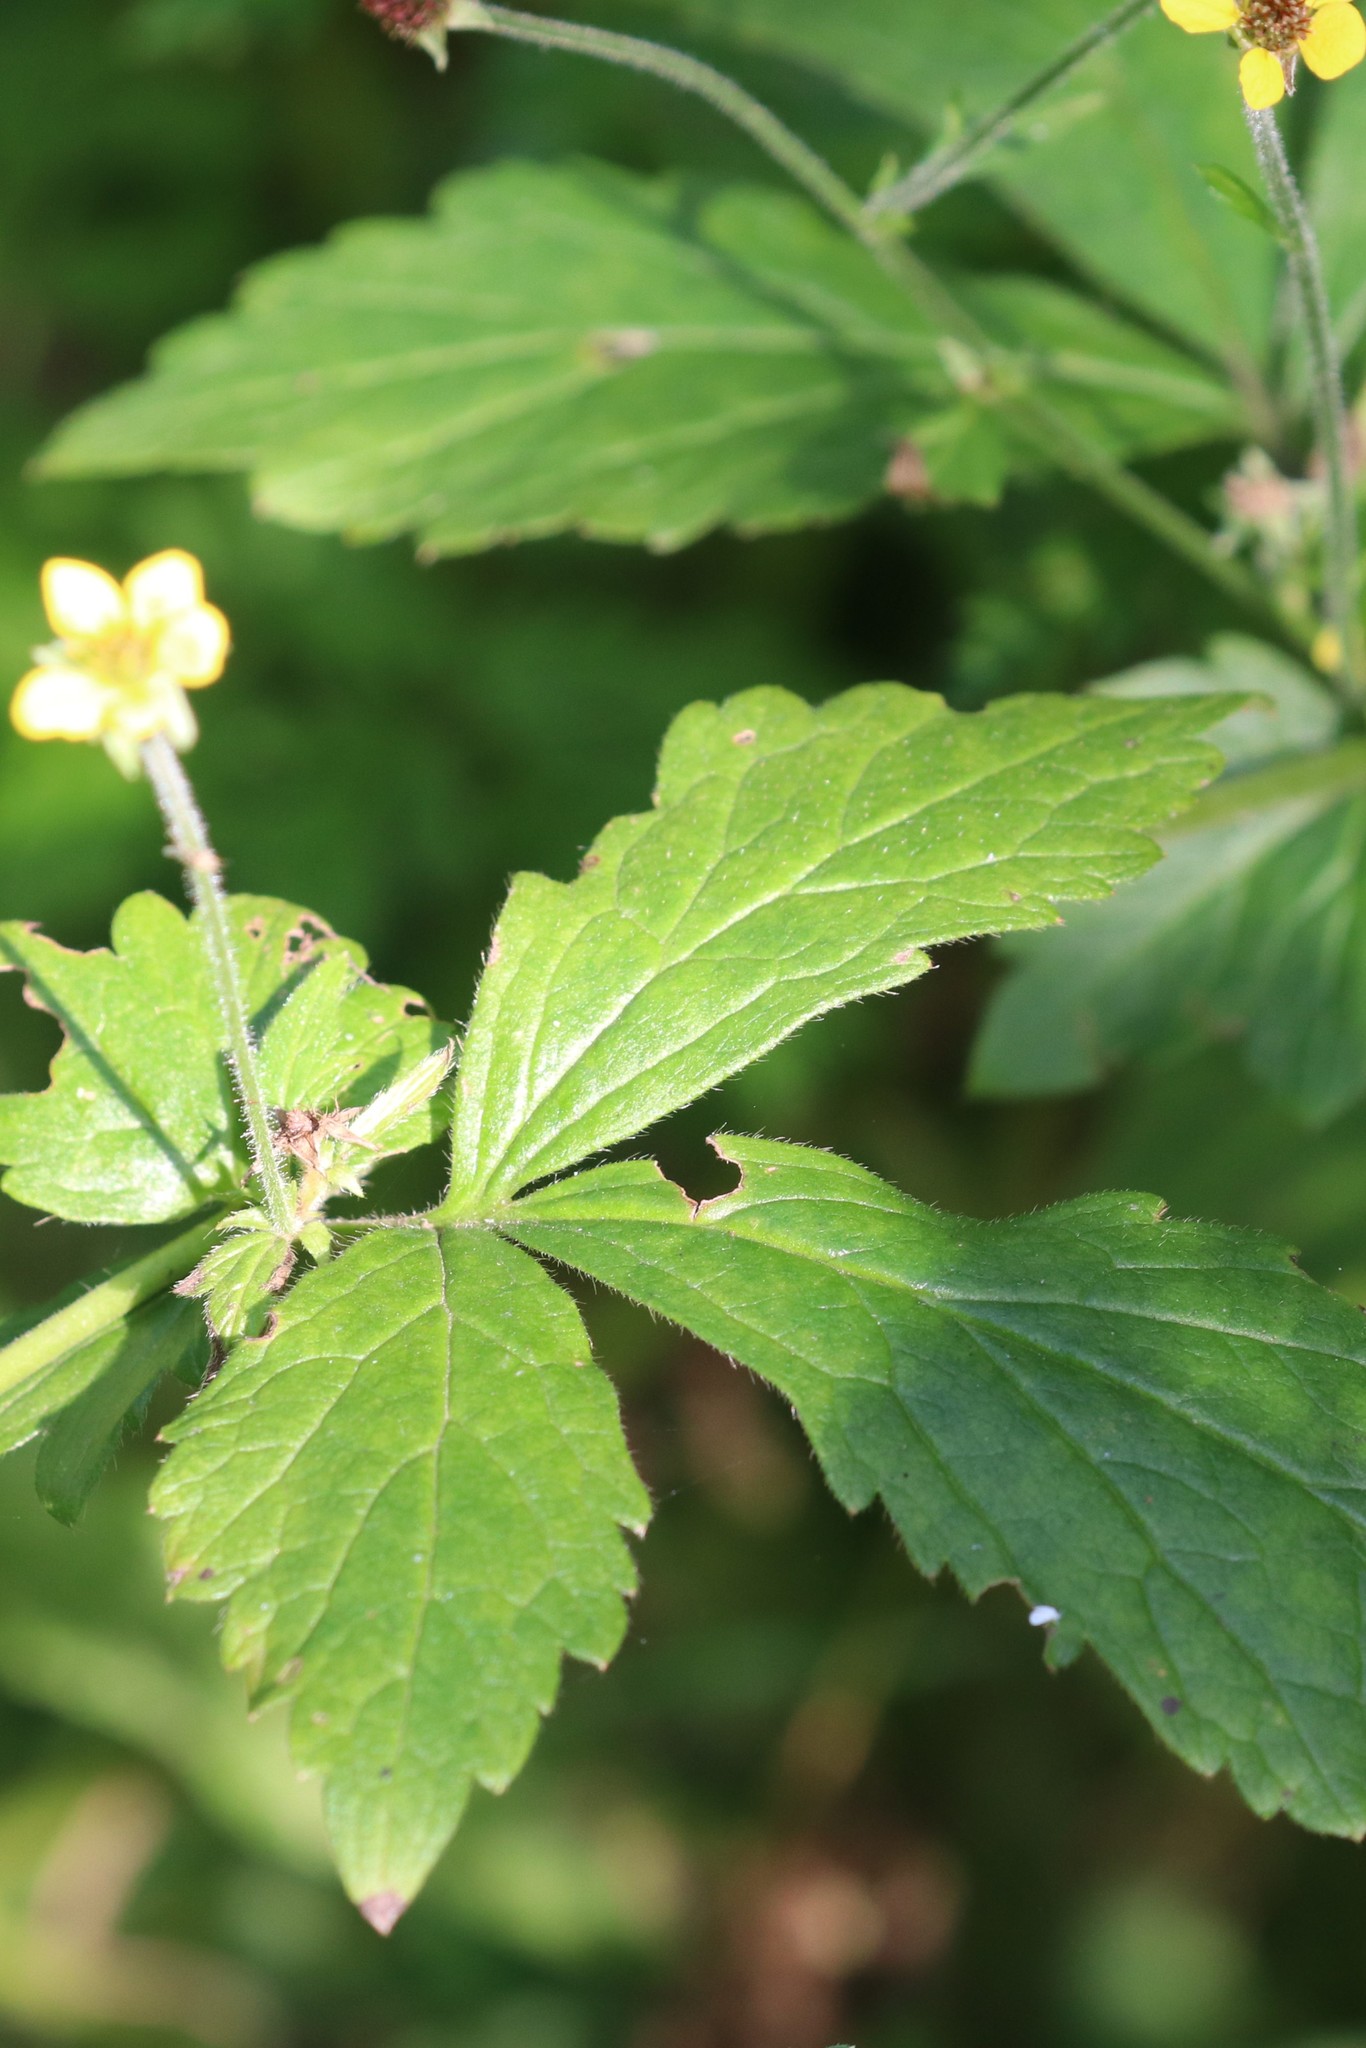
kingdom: Plantae
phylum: Tracheophyta
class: Magnoliopsida
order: Rosales
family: Rosaceae
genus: Geum
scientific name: Geum urbanum
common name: Wood avens
